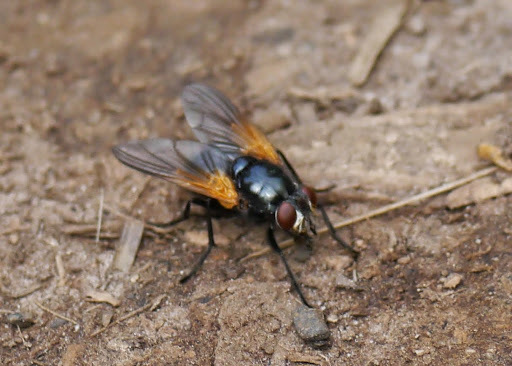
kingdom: Animalia
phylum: Arthropoda
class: Insecta
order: Diptera
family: Muscidae
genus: Mesembrina
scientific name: Mesembrina latreillii
